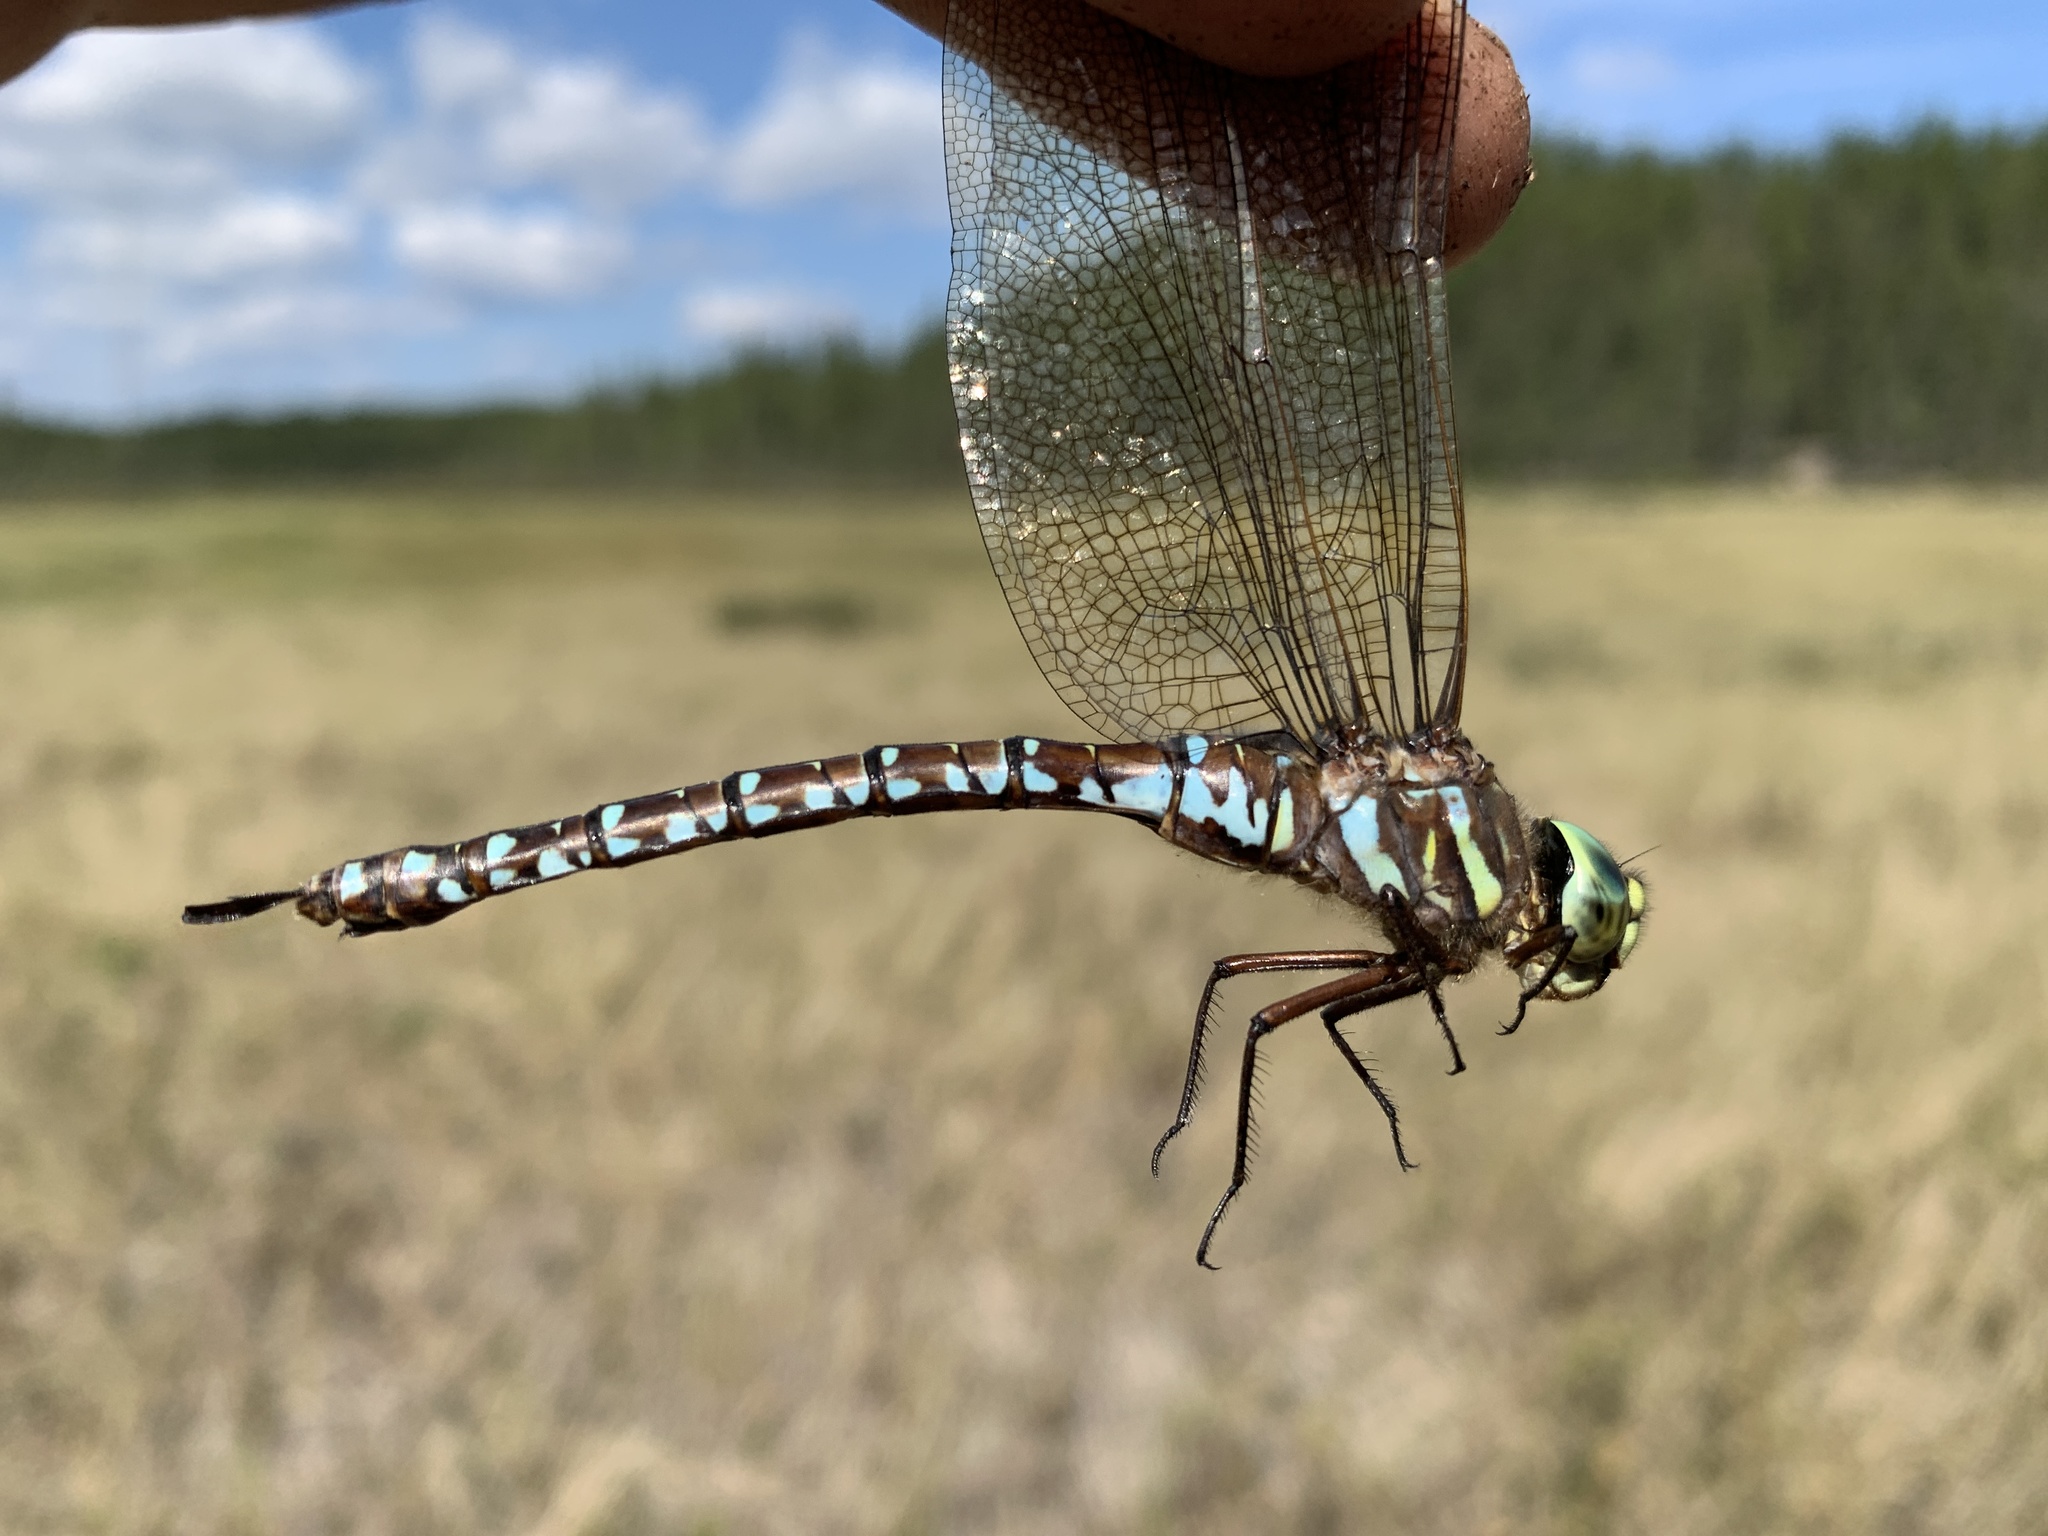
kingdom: Animalia
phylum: Arthropoda
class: Insecta
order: Odonata
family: Aeshnidae
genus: Aeshna
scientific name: Aeshna subarctica
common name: Subarctic darner
